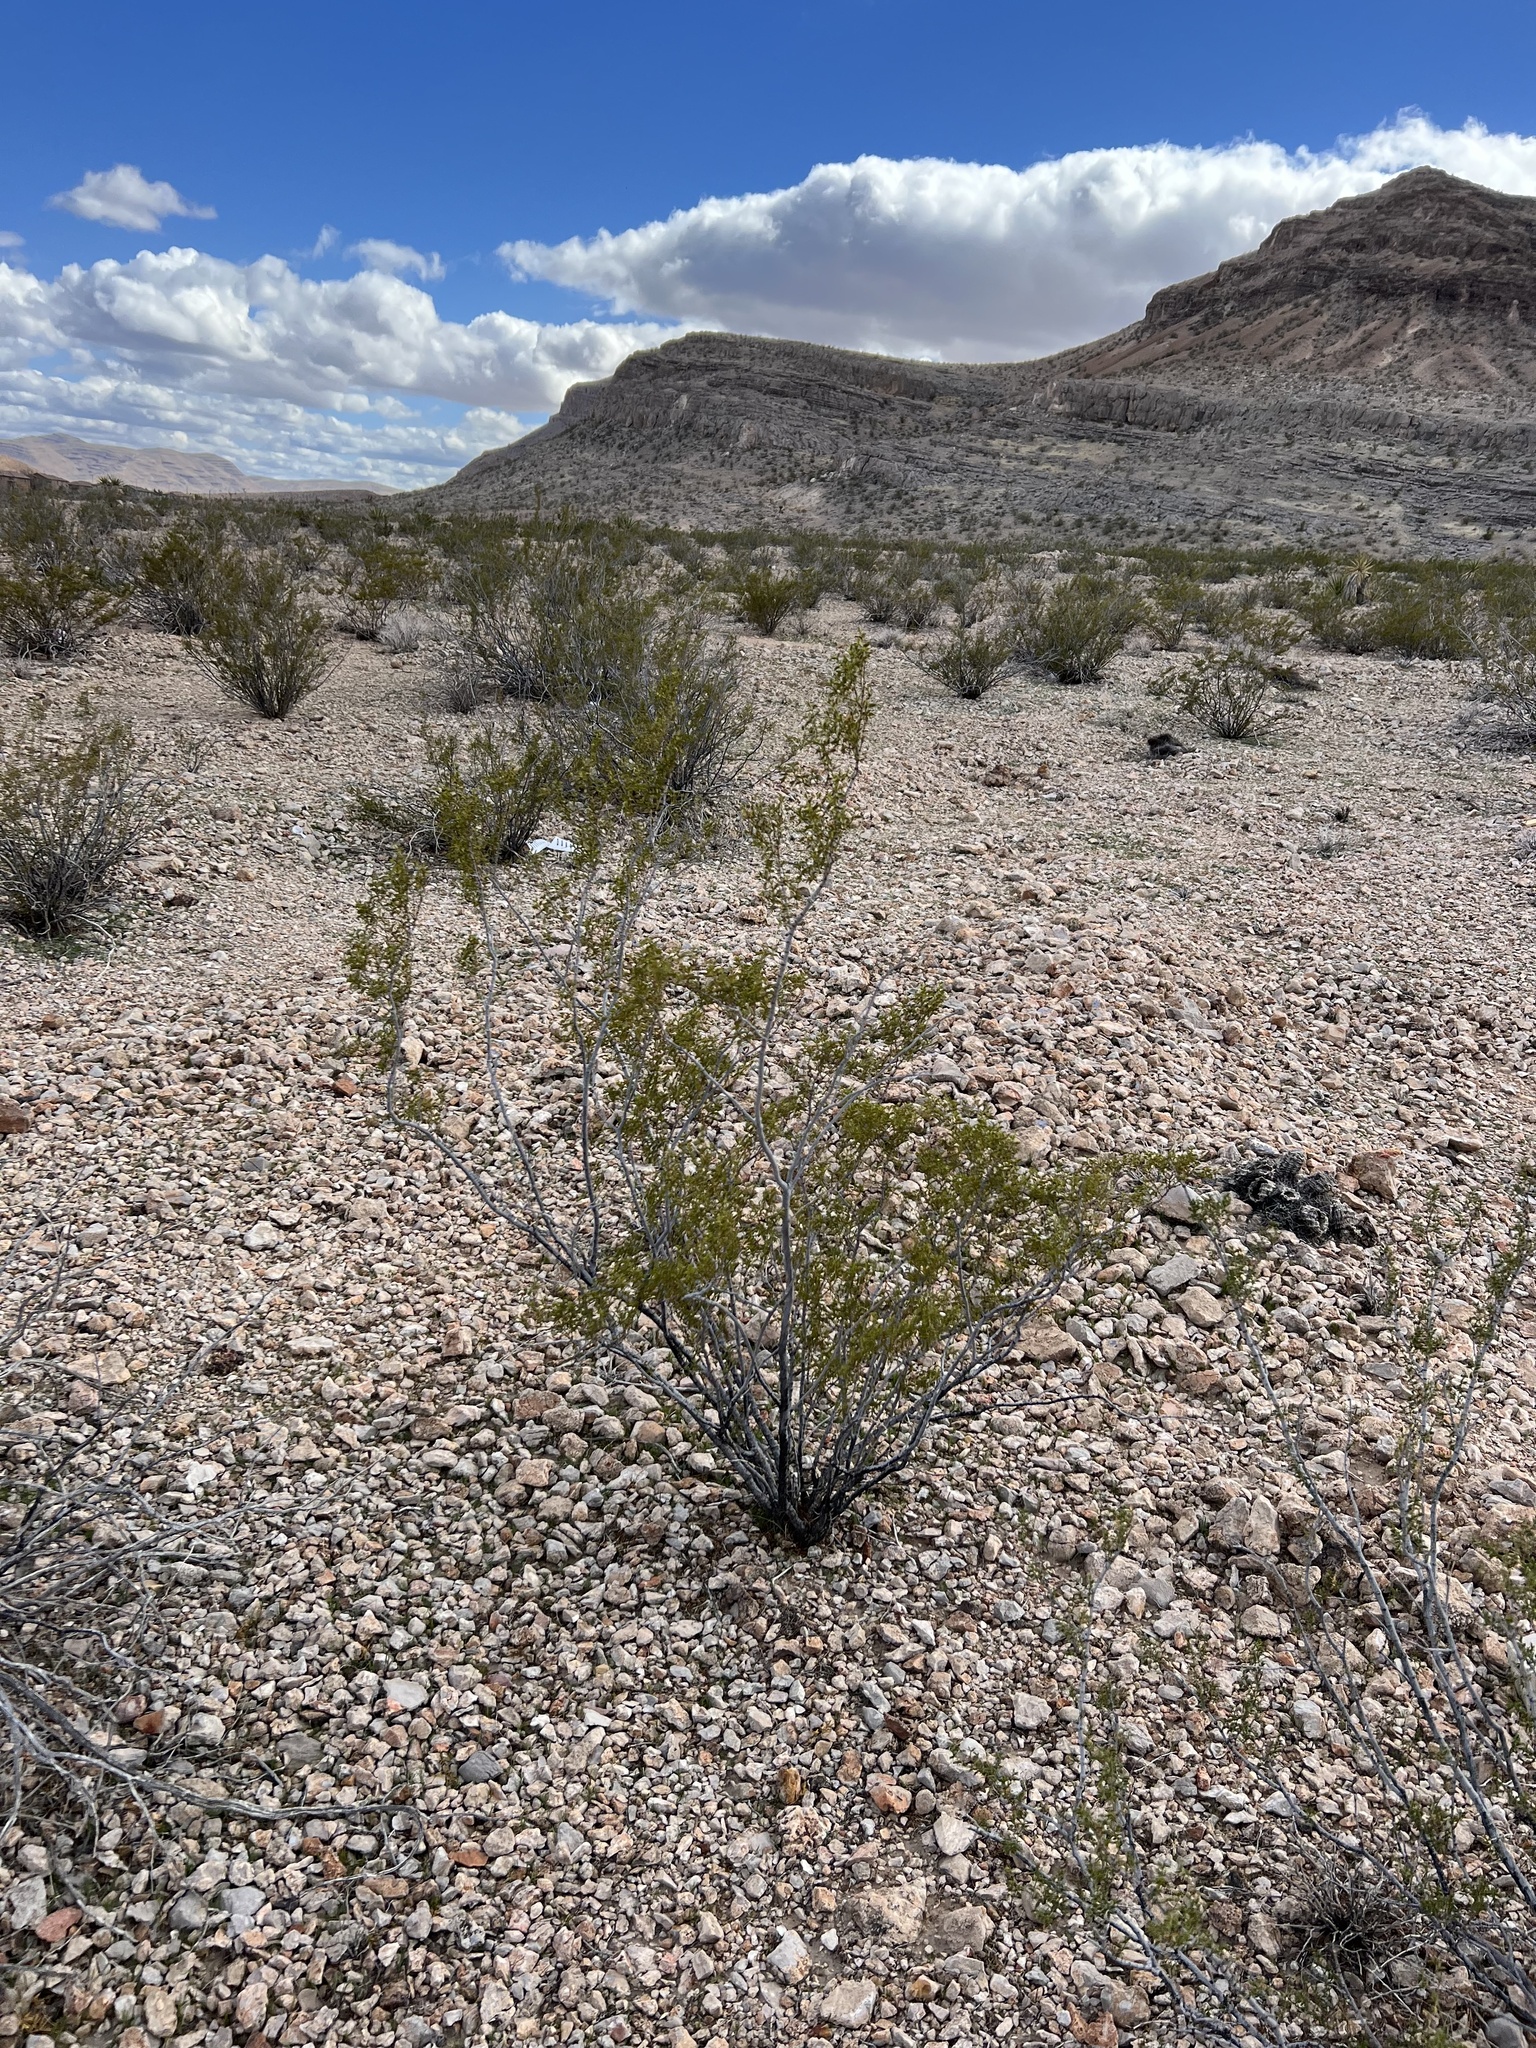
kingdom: Plantae
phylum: Tracheophyta
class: Magnoliopsida
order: Zygophyllales
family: Zygophyllaceae
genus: Larrea
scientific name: Larrea tridentata
